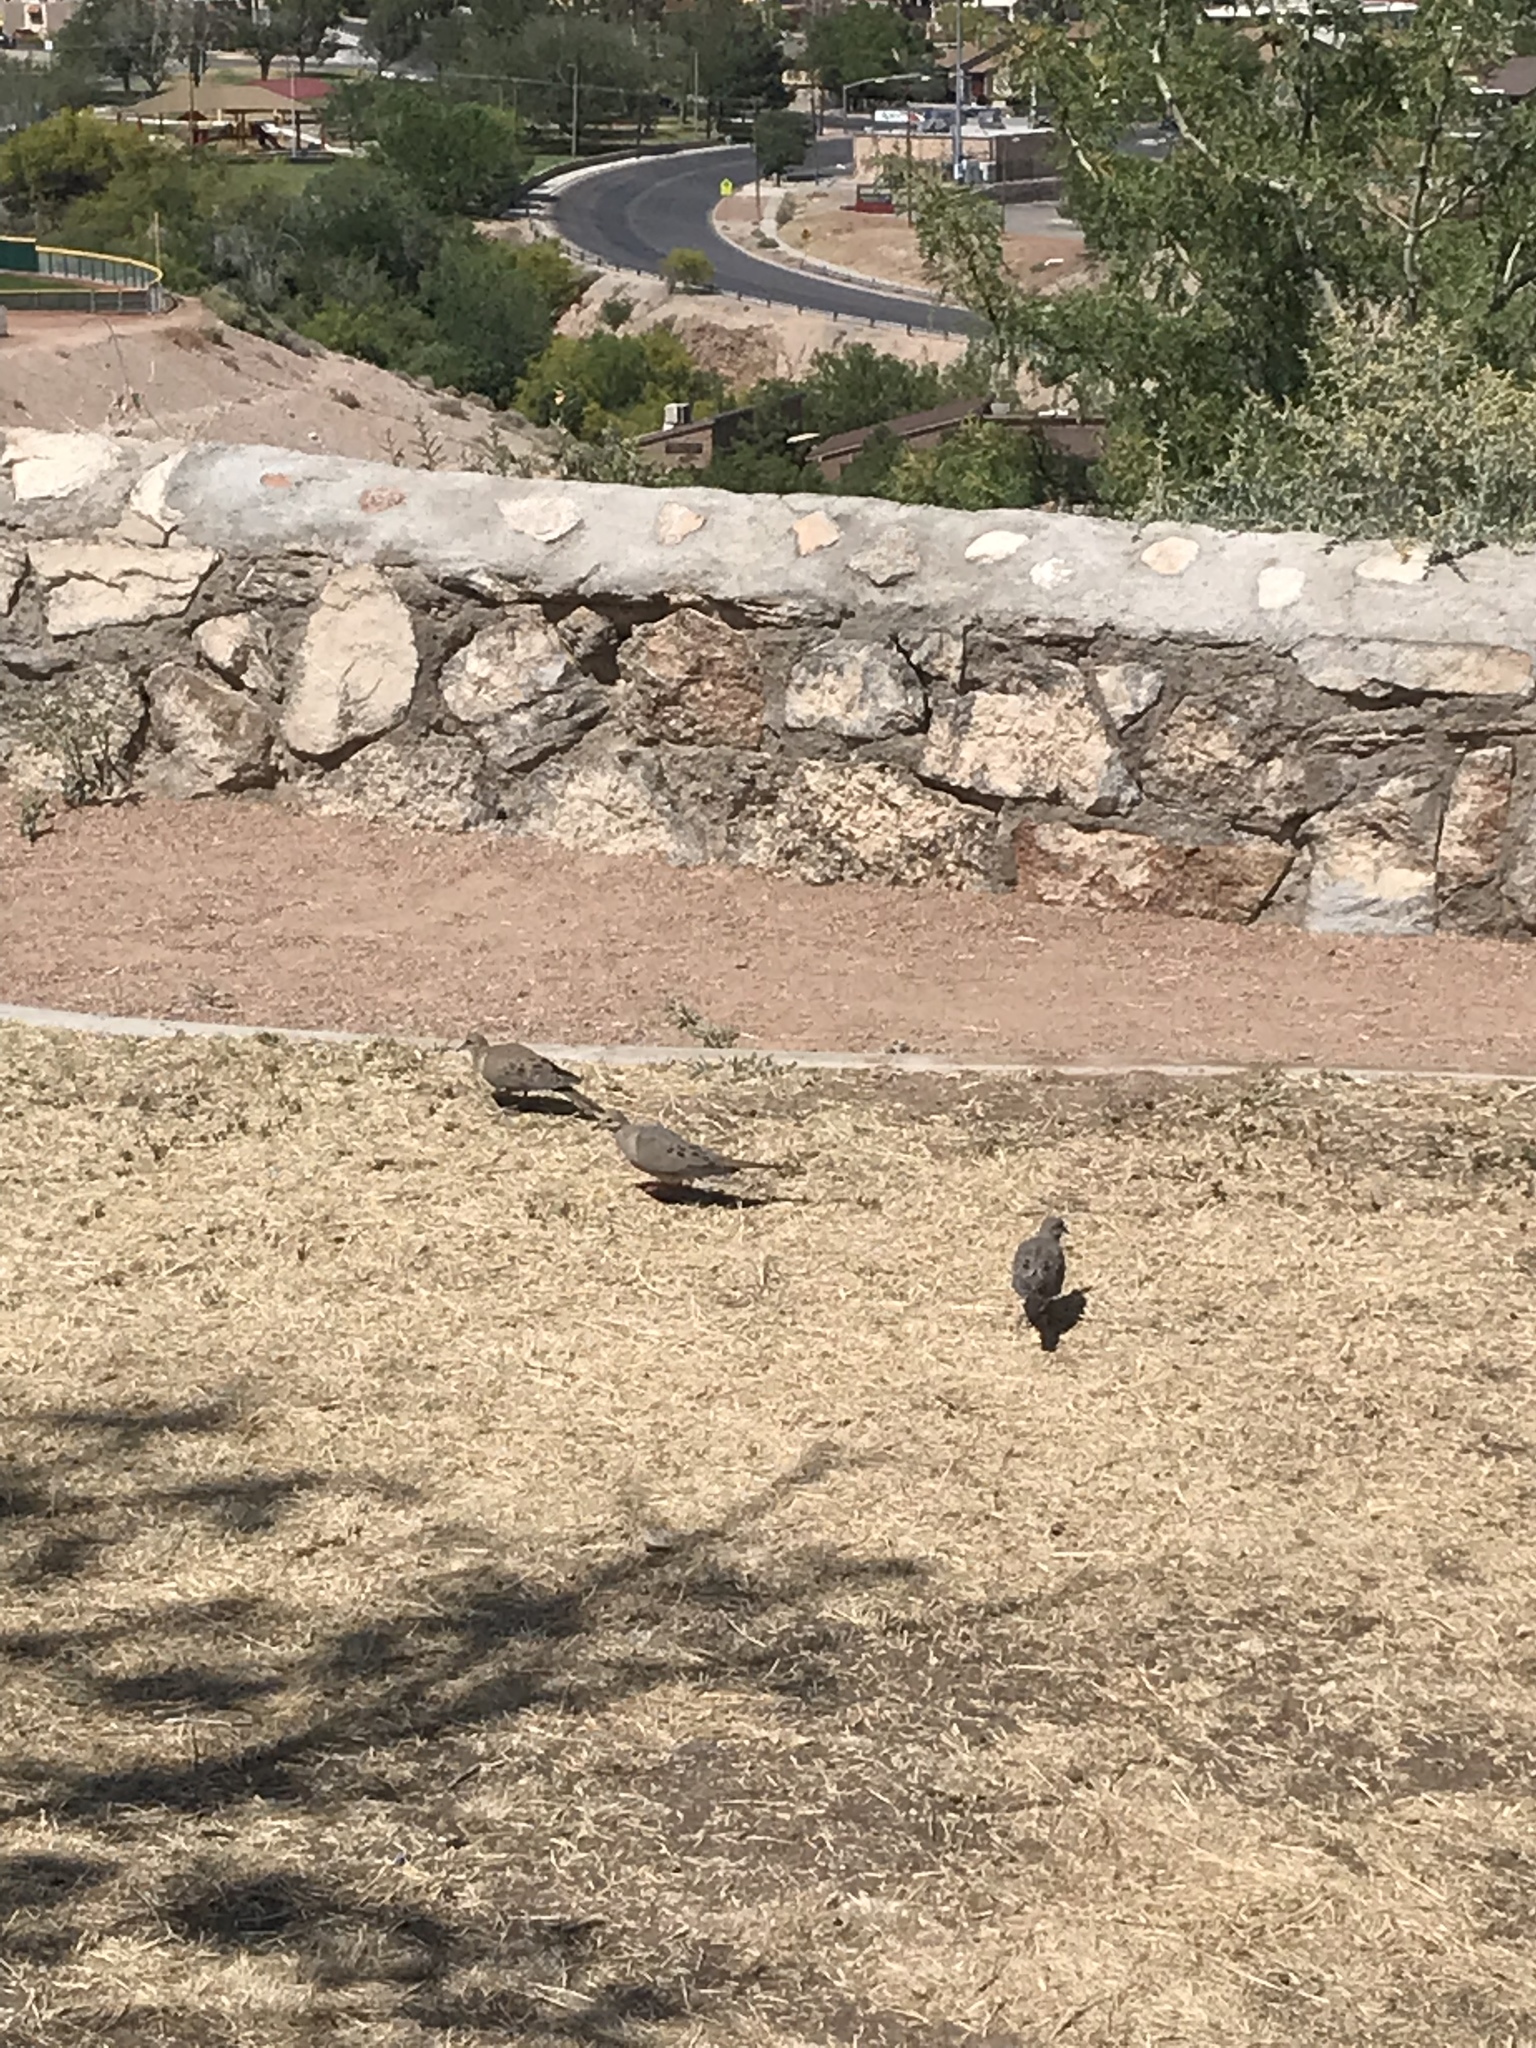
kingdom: Animalia
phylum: Chordata
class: Aves
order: Columbiformes
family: Columbidae
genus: Zenaida
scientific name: Zenaida macroura
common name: Mourning dove
